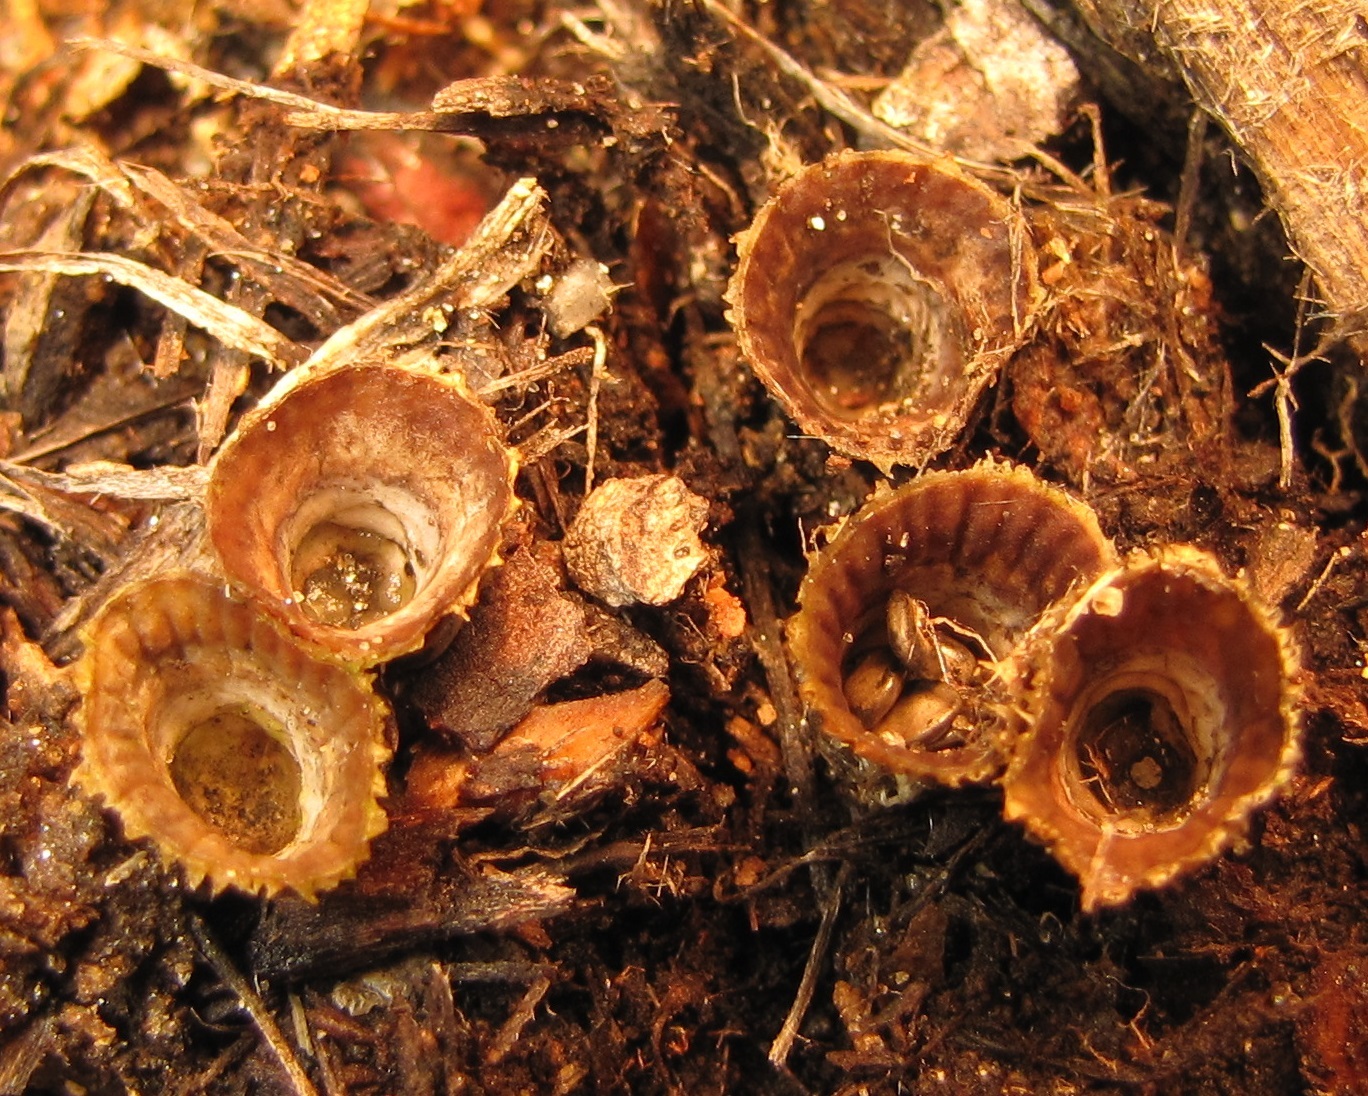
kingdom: Fungi
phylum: Basidiomycota
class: Agaricomycetes
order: Agaricales
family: Agaricaceae
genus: Cyathus
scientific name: Cyathus striatus
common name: Fluted bird's nest
